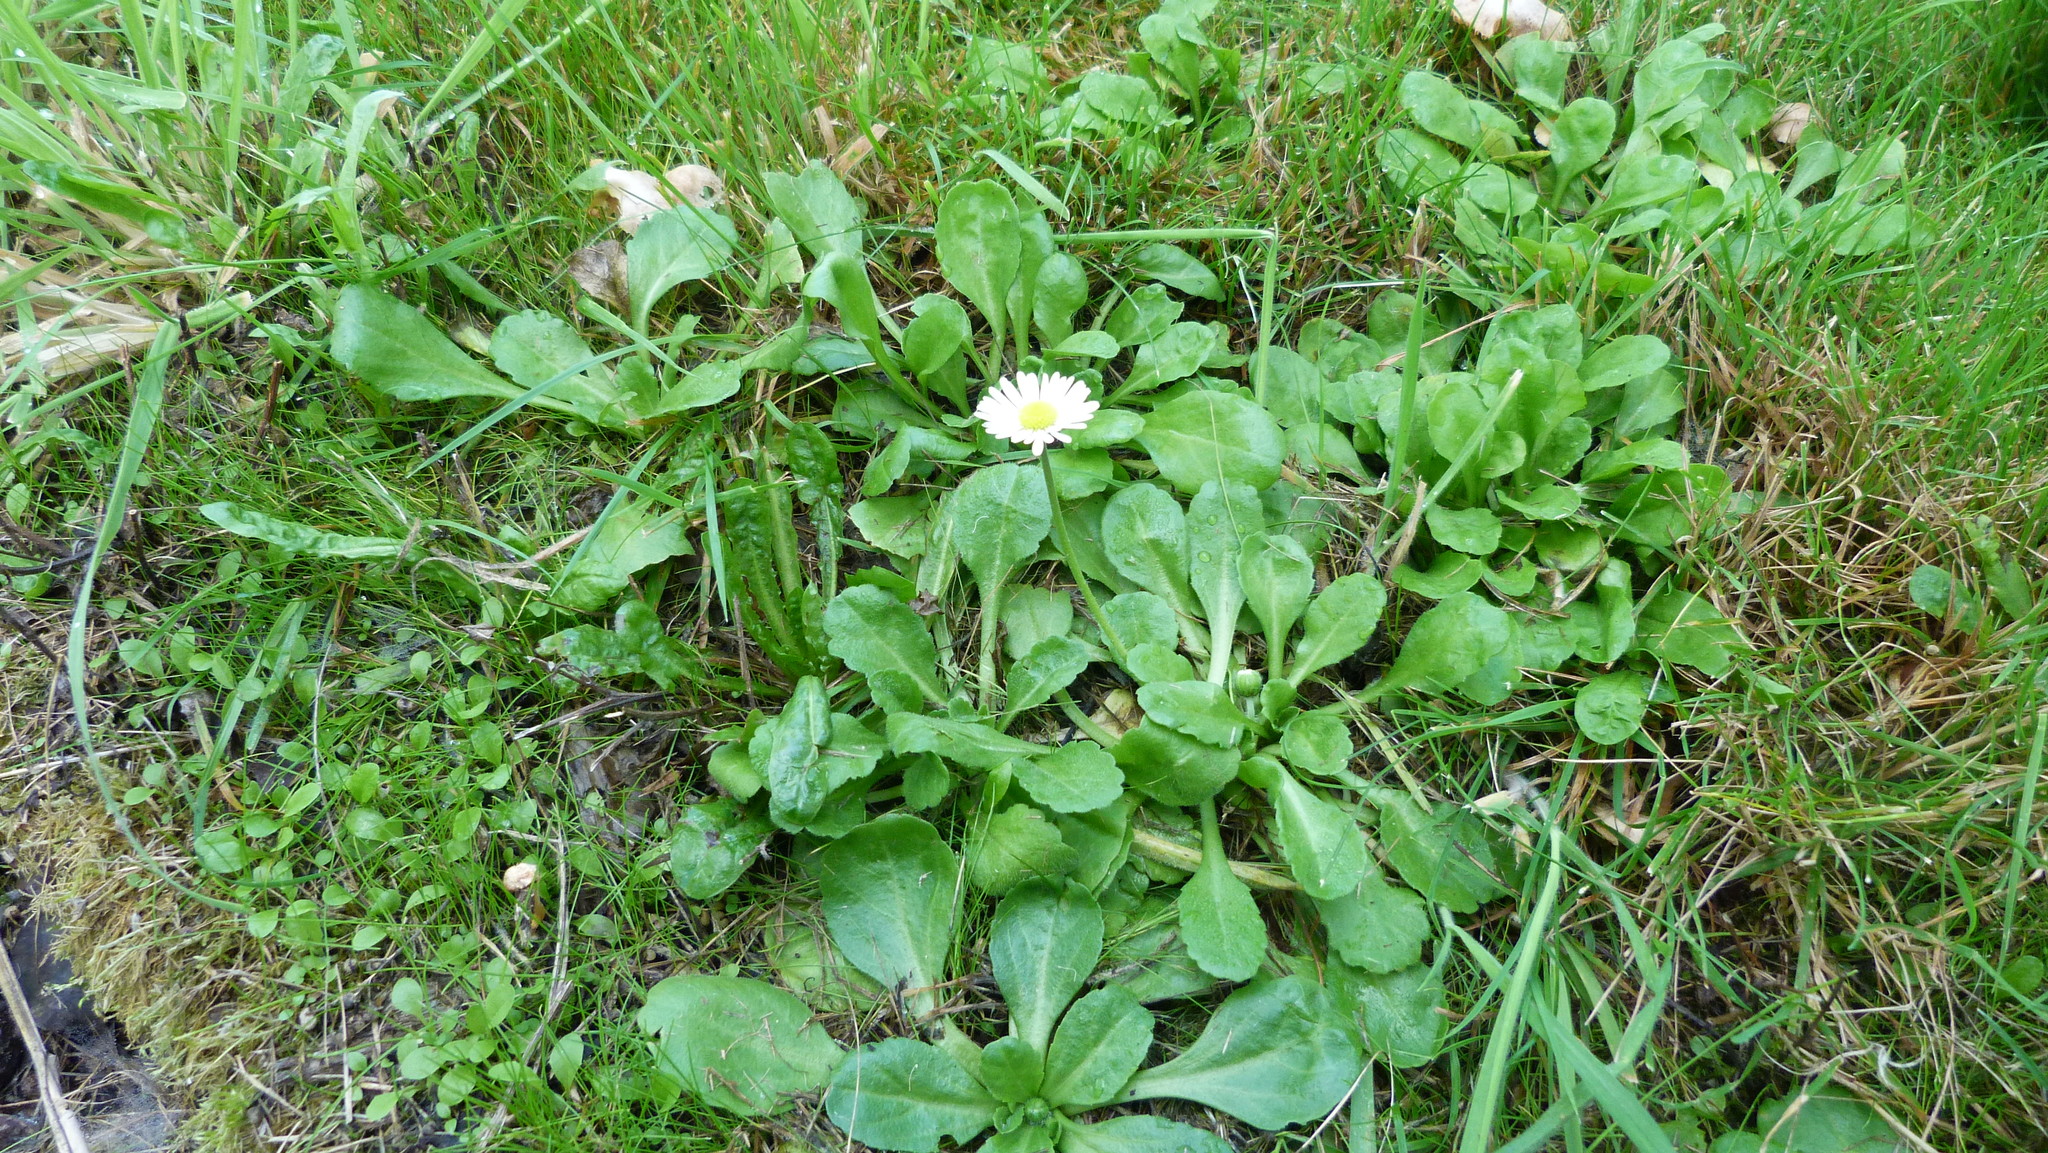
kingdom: Plantae
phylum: Tracheophyta
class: Magnoliopsida
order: Asterales
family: Asteraceae
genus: Bellis
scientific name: Bellis perennis
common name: Lawndaisy
